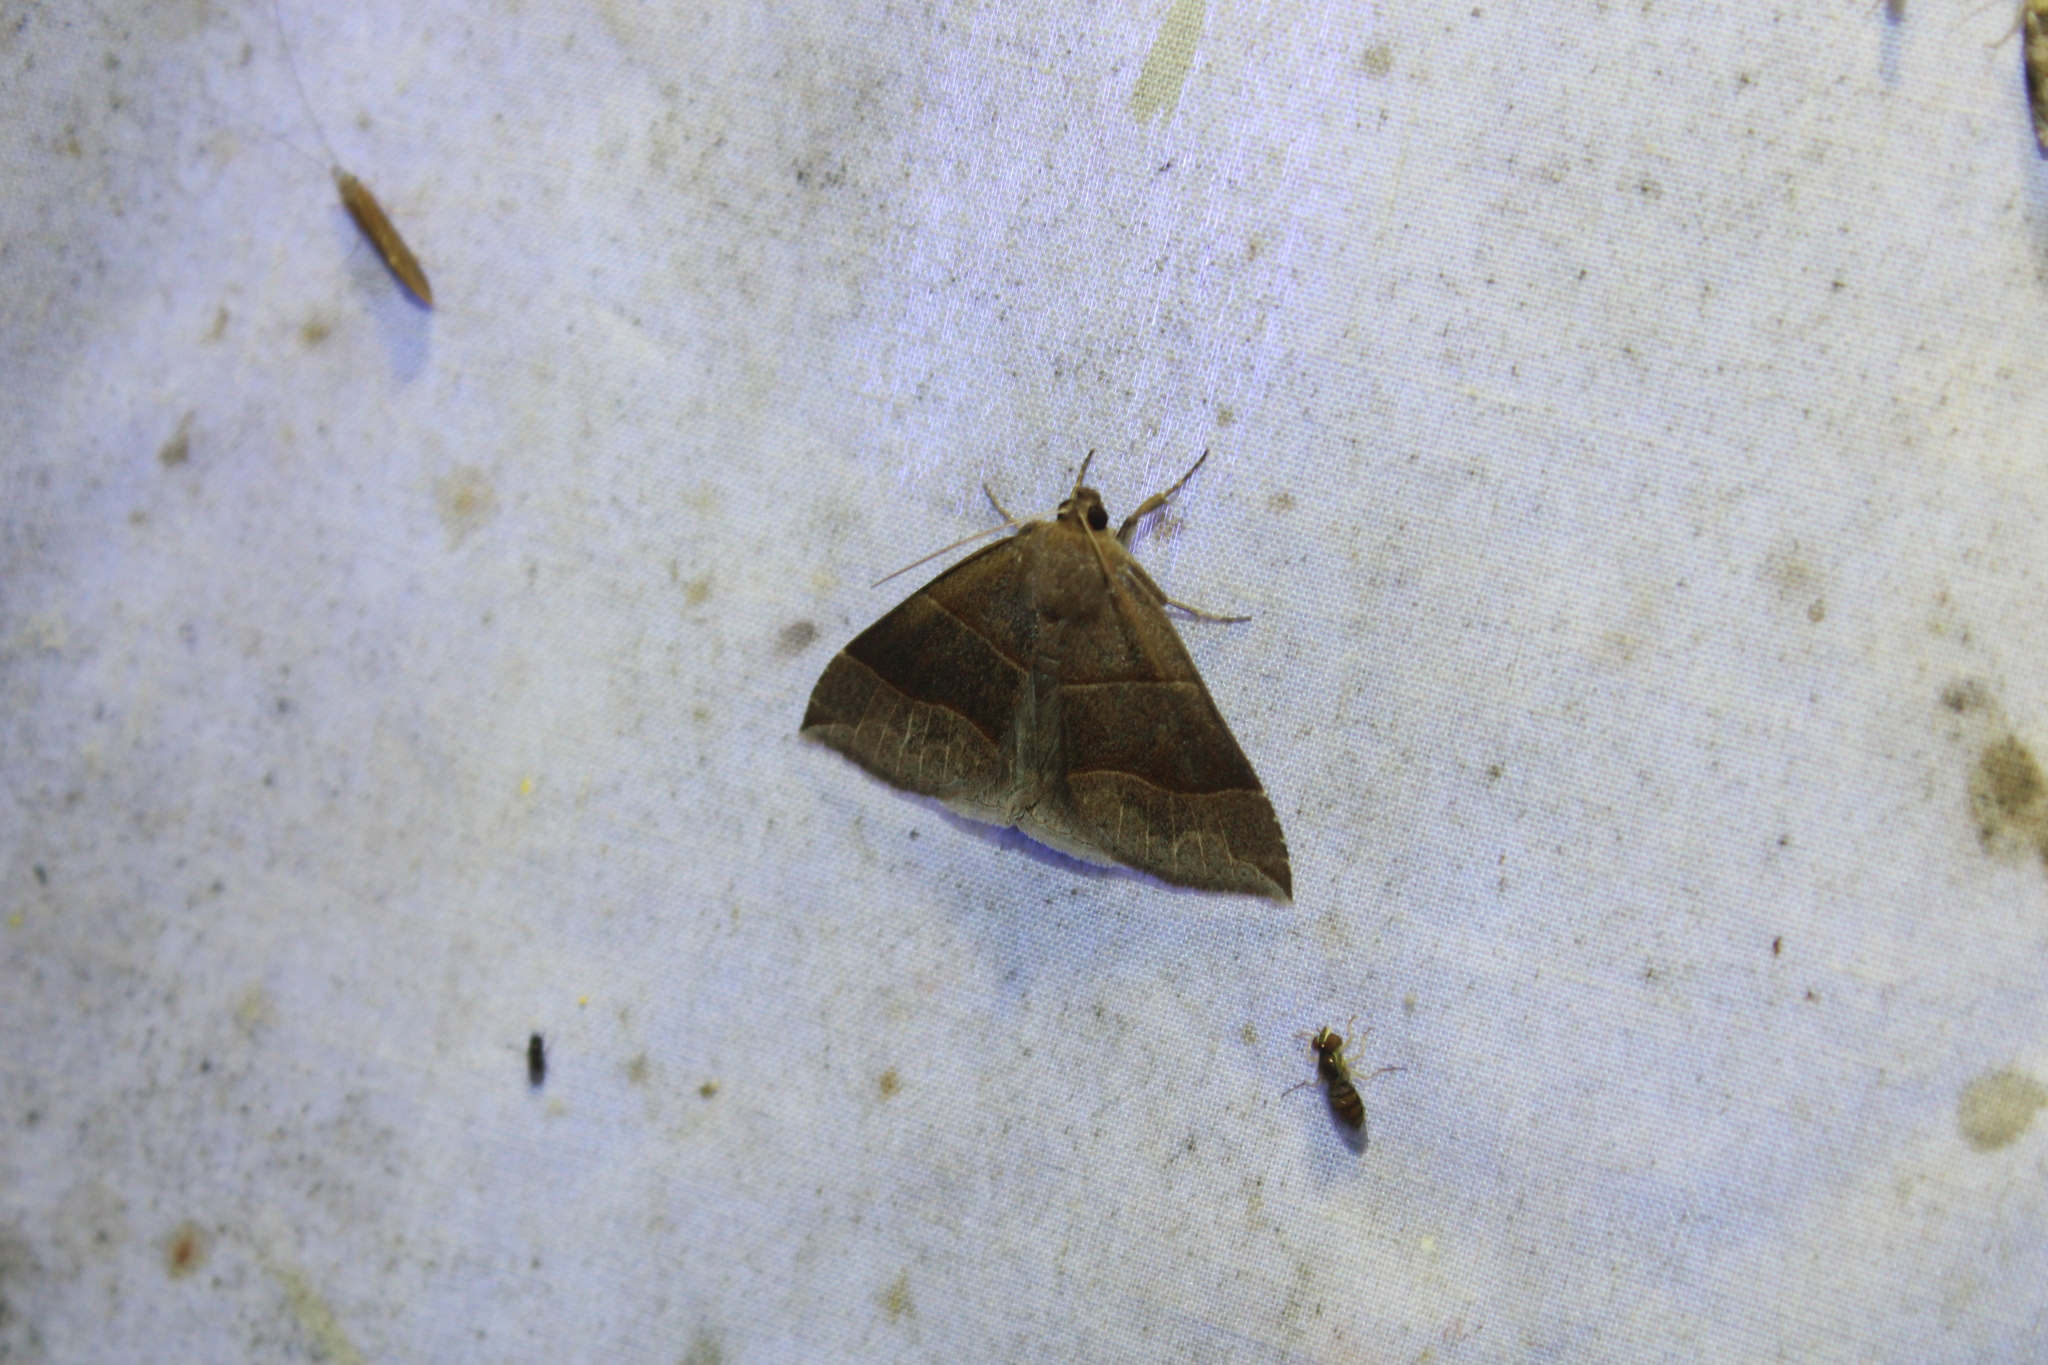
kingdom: Animalia
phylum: Arthropoda
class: Insecta
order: Lepidoptera
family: Erebidae
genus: Parallelia
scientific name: Parallelia bistriaris
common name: Maple looper moth
